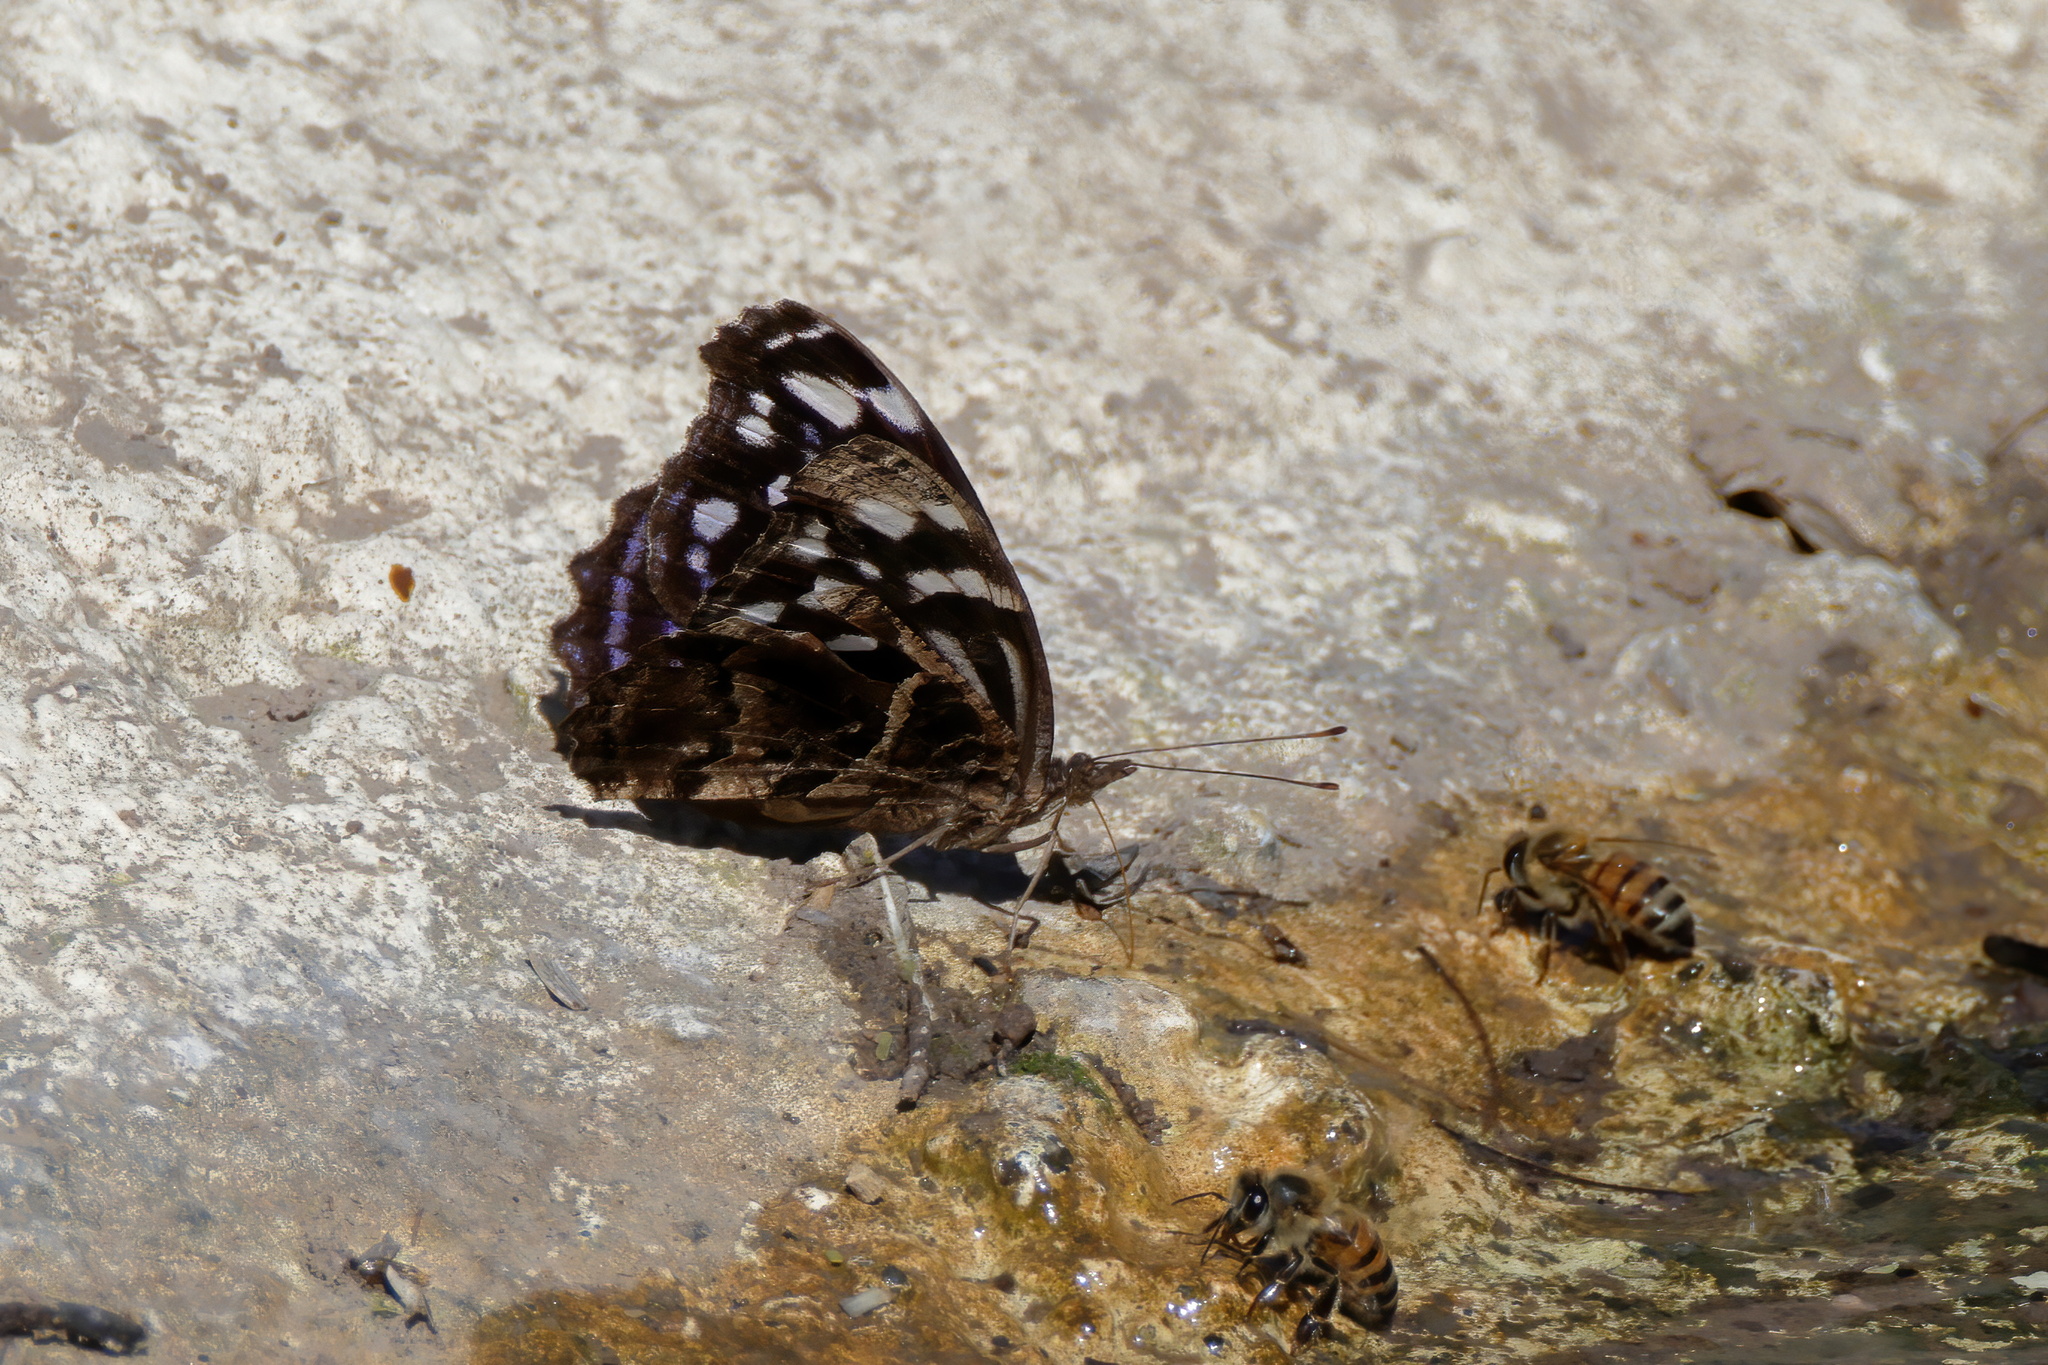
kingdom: Animalia
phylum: Arthropoda
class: Insecta
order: Lepidoptera
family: Nymphalidae
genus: Myscelia
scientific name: Myscelia ethusa
